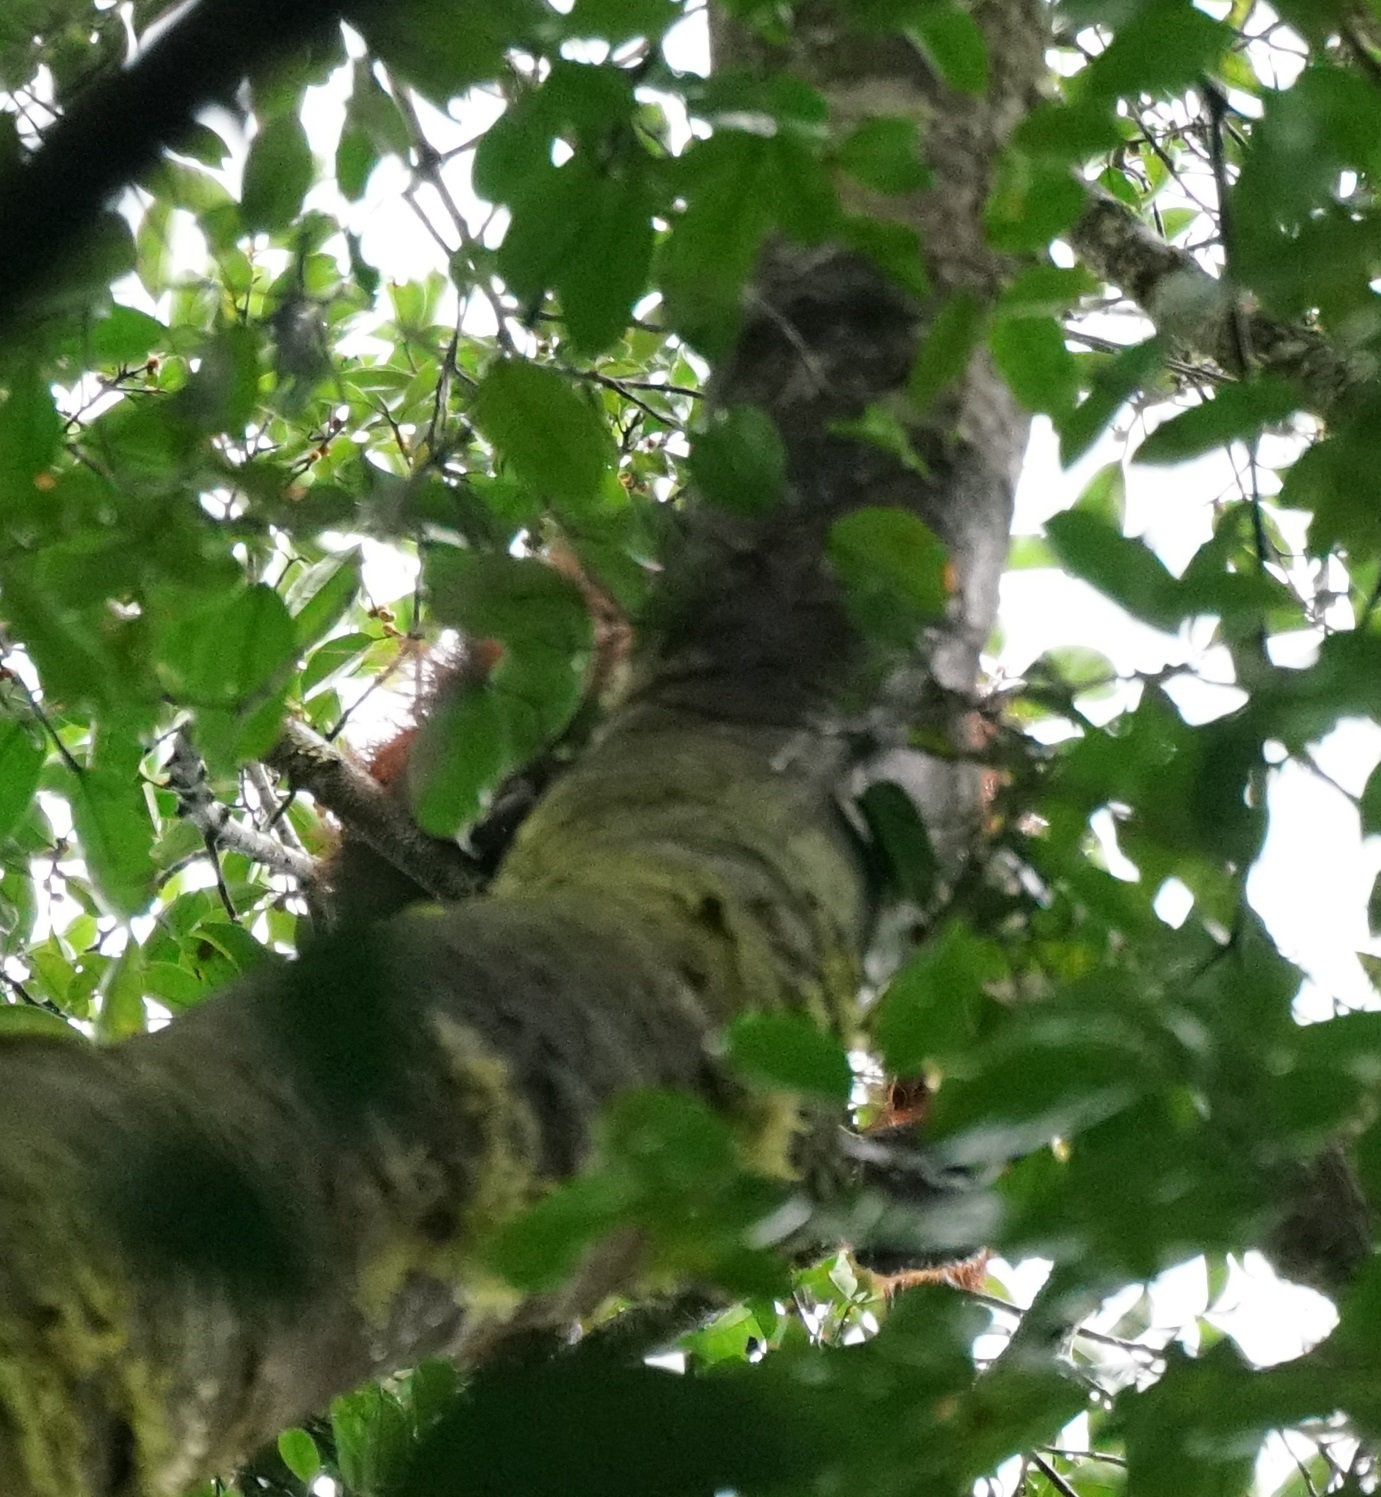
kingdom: Animalia
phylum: Chordata
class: Mammalia
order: Primates
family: Hominidae
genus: Pongo
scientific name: Pongo pygmaeus
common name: Bornean orangutan
